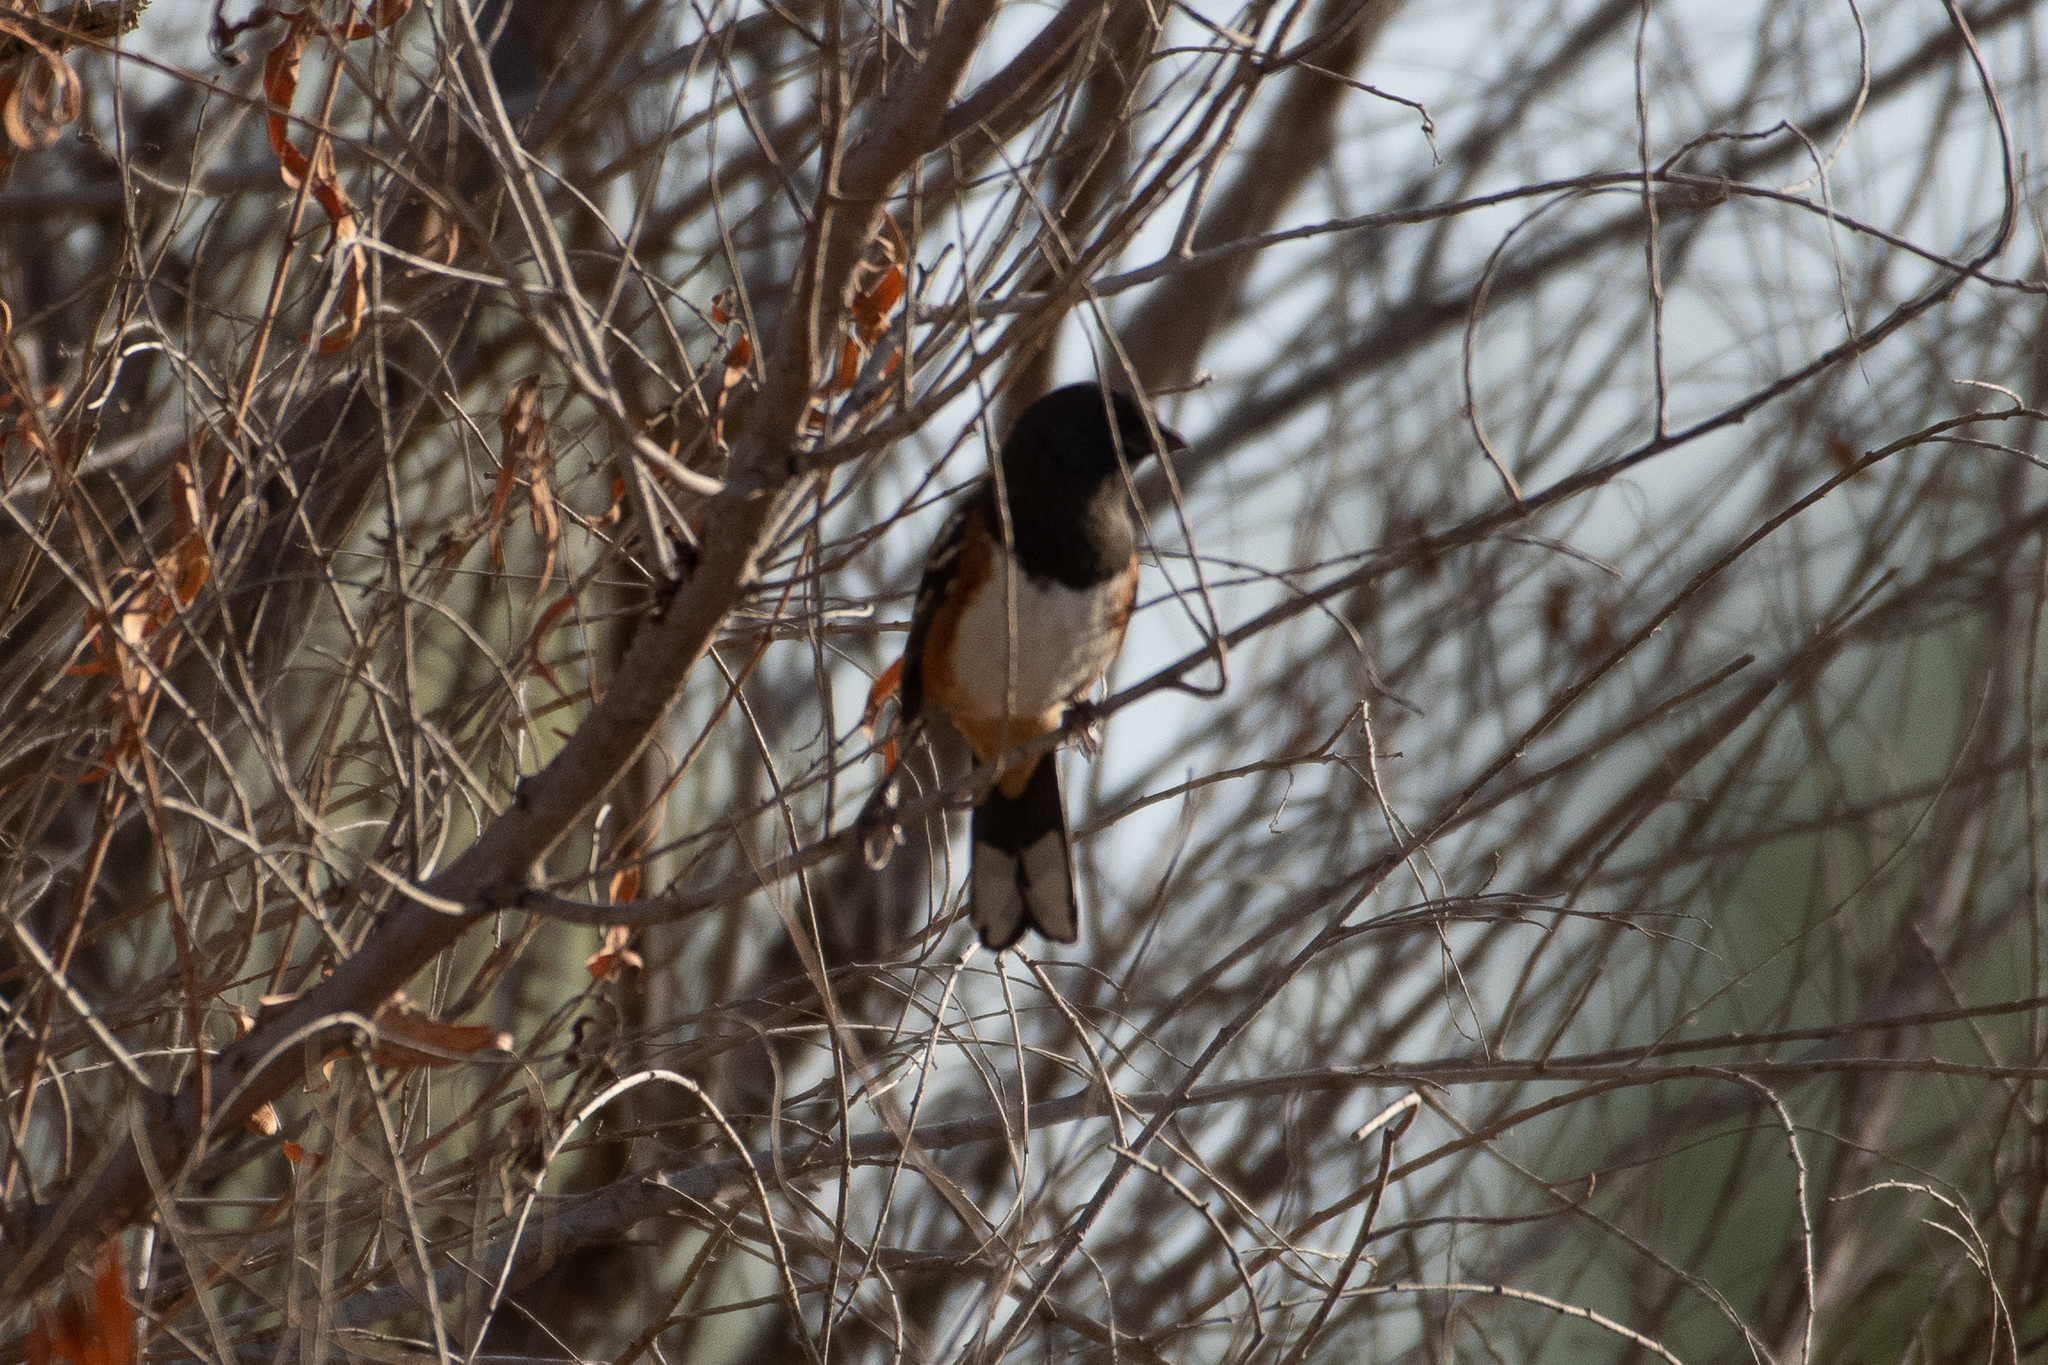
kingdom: Animalia
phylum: Chordata
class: Aves
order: Passeriformes
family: Passerellidae
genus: Pipilo
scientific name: Pipilo maculatus
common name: Spotted towhee
